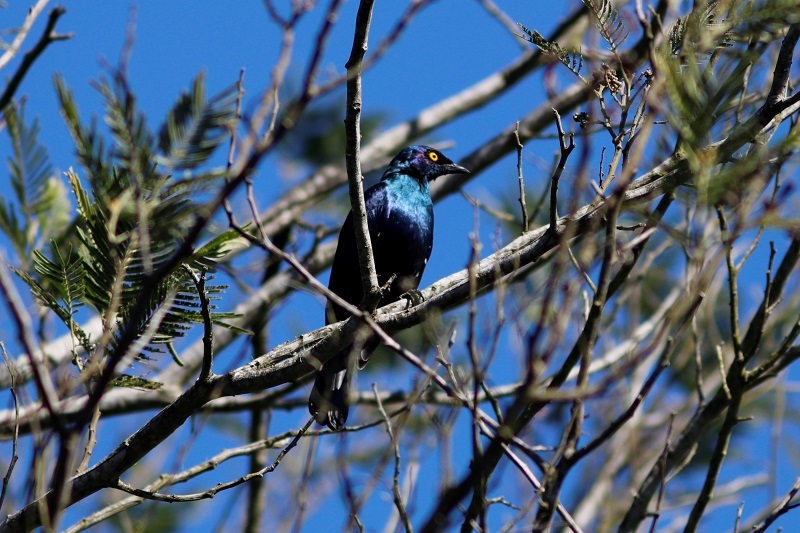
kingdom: Animalia
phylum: Chordata
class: Aves
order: Passeriformes
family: Sturnidae
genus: Notopholia
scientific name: Notopholia corrusca
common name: Black-bellied starling
